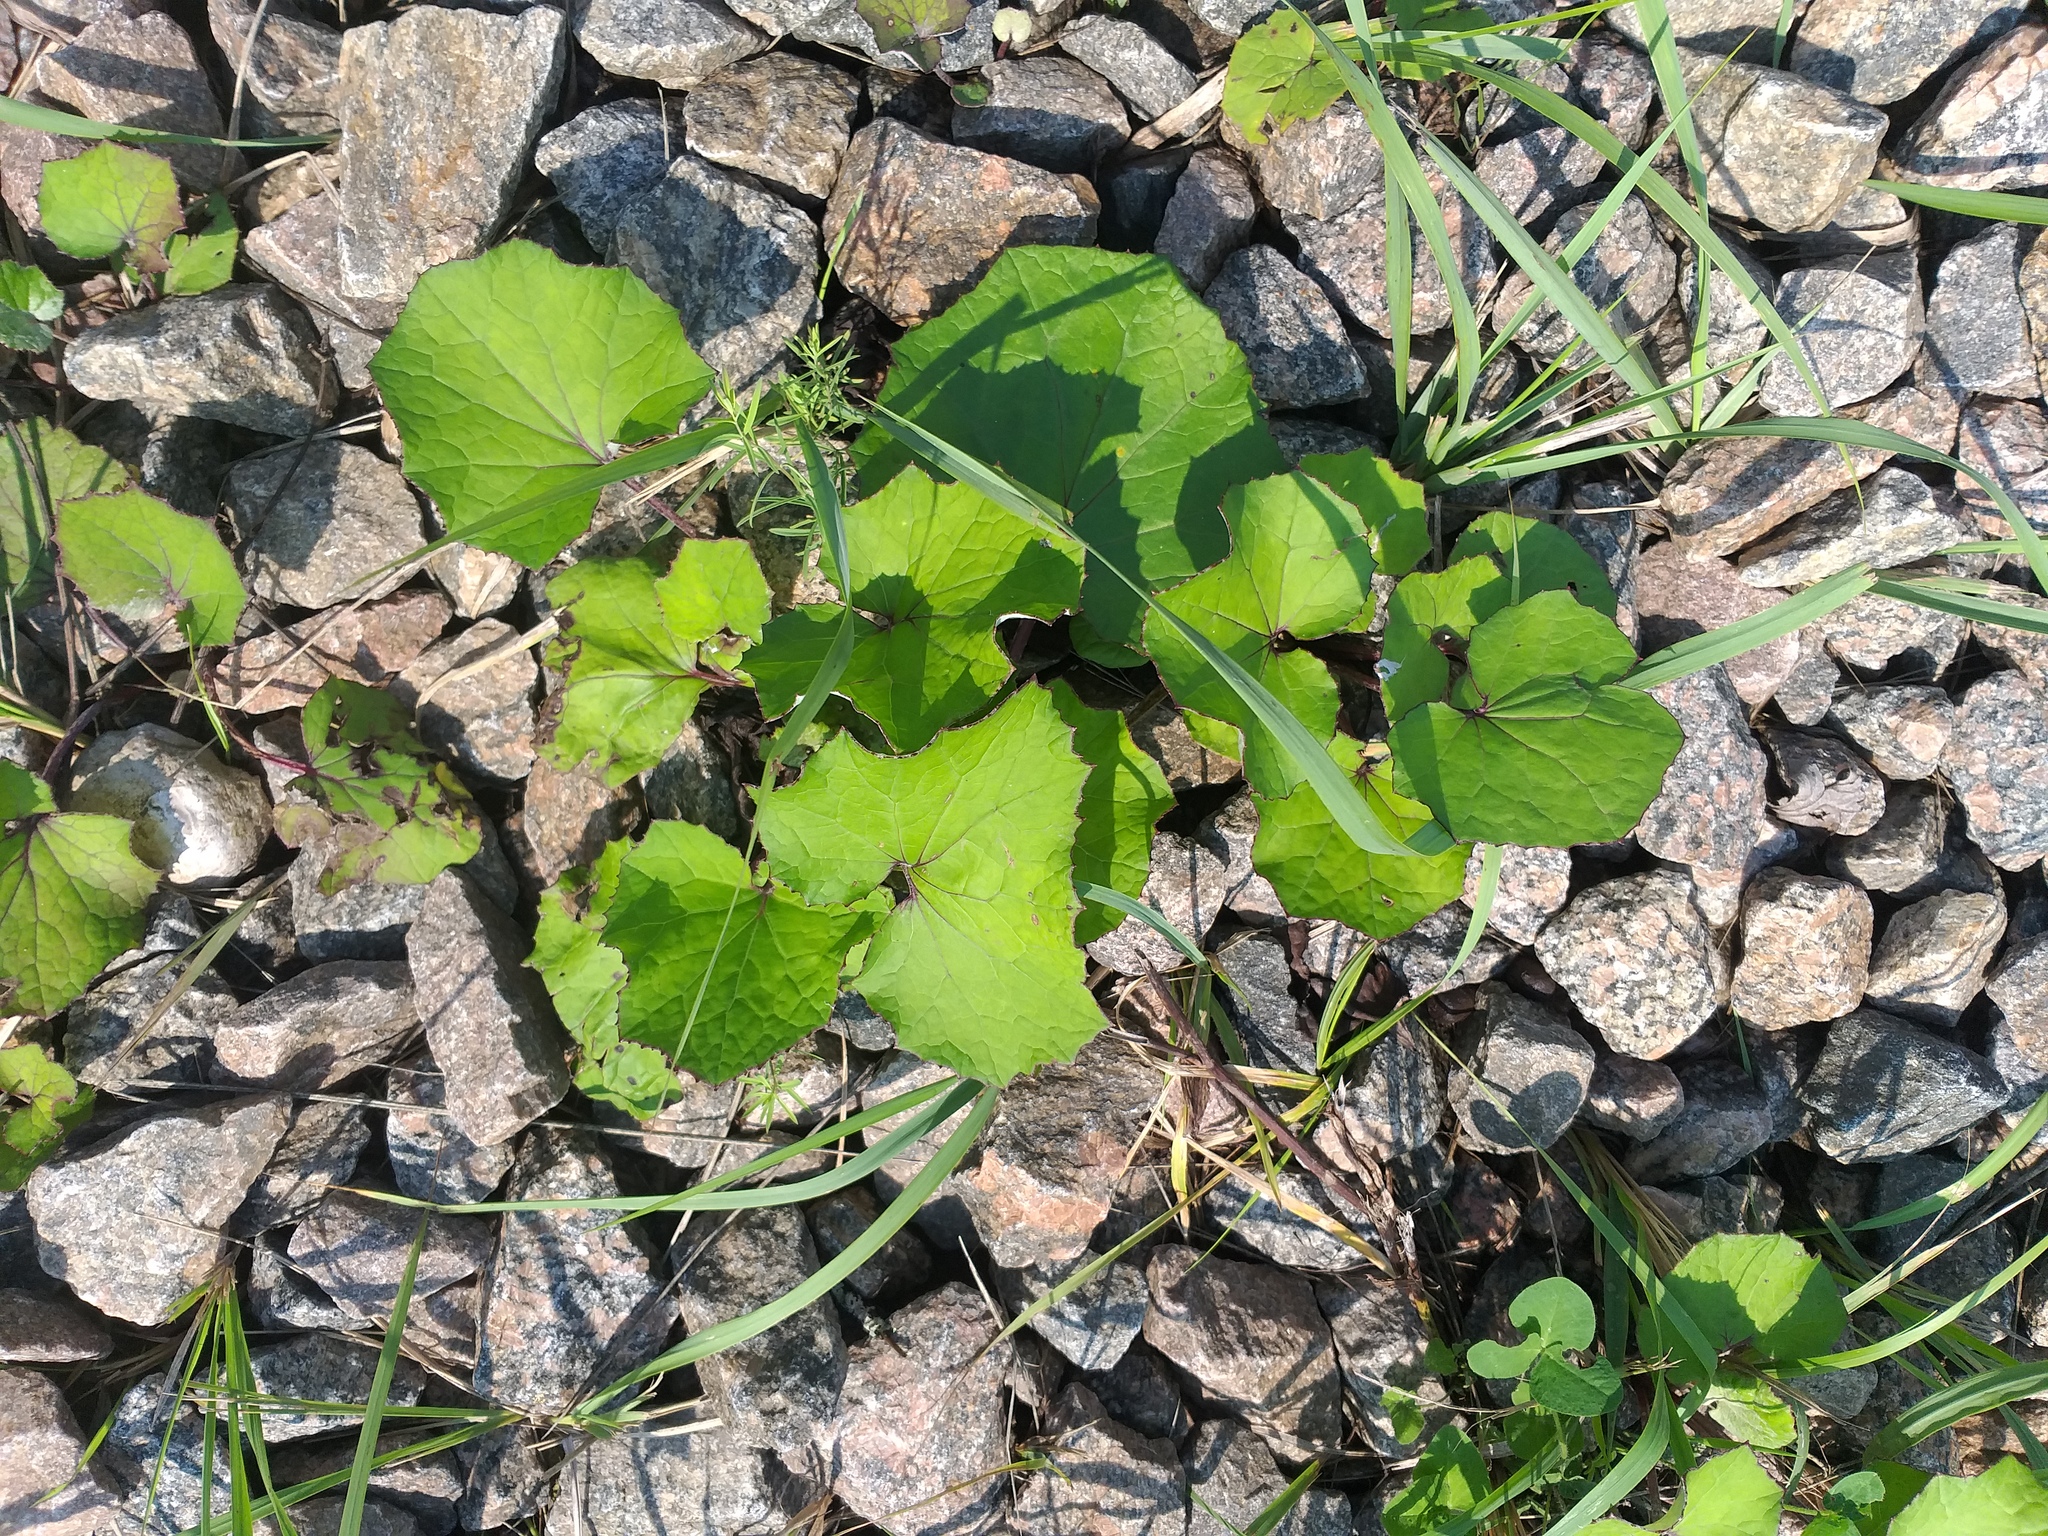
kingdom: Plantae
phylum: Tracheophyta
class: Magnoliopsida
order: Asterales
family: Asteraceae
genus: Tussilago
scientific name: Tussilago farfara
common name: Coltsfoot
